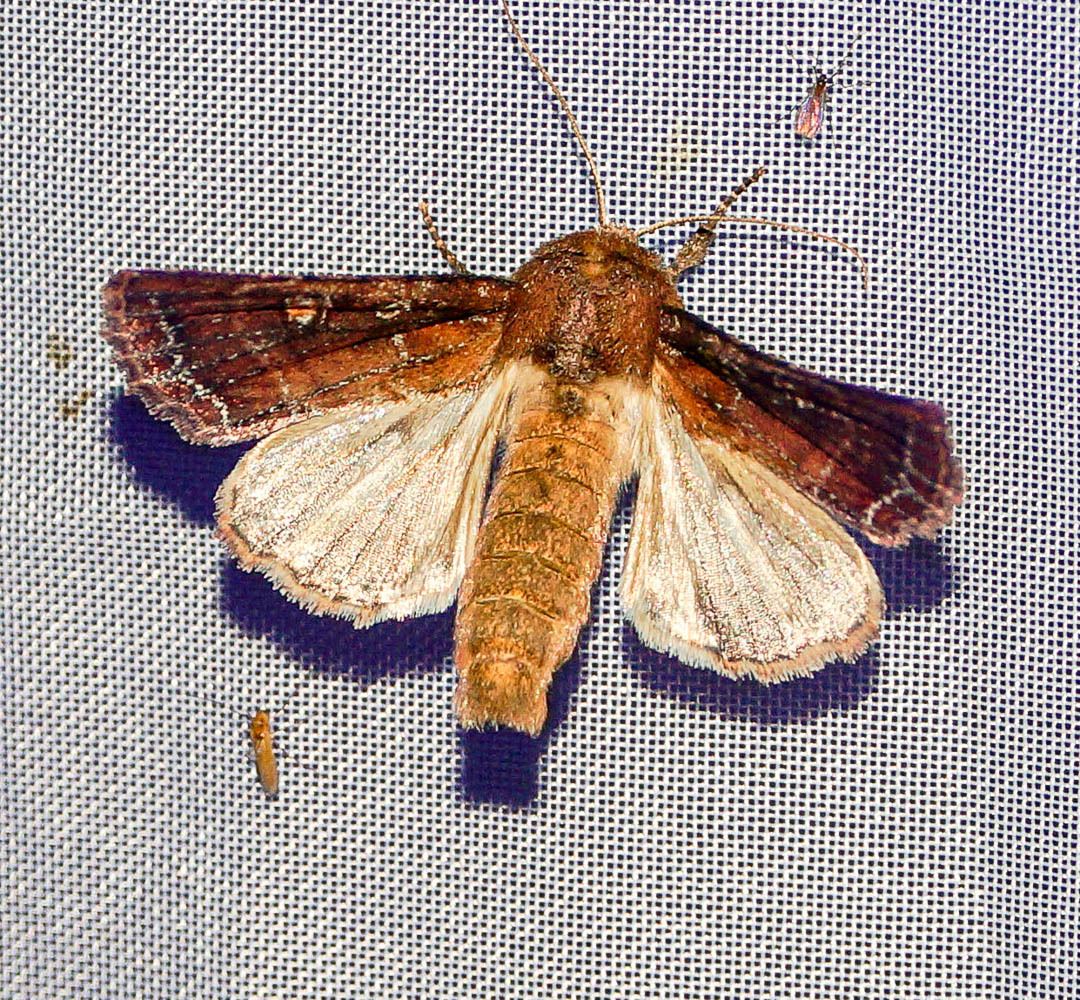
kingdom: Animalia
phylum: Arthropoda
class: Insecta
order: Lepidoptera
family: Noctuidae
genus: Lacanobia
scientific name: Lacanobia oleracea
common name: Bright-line brown-eye
